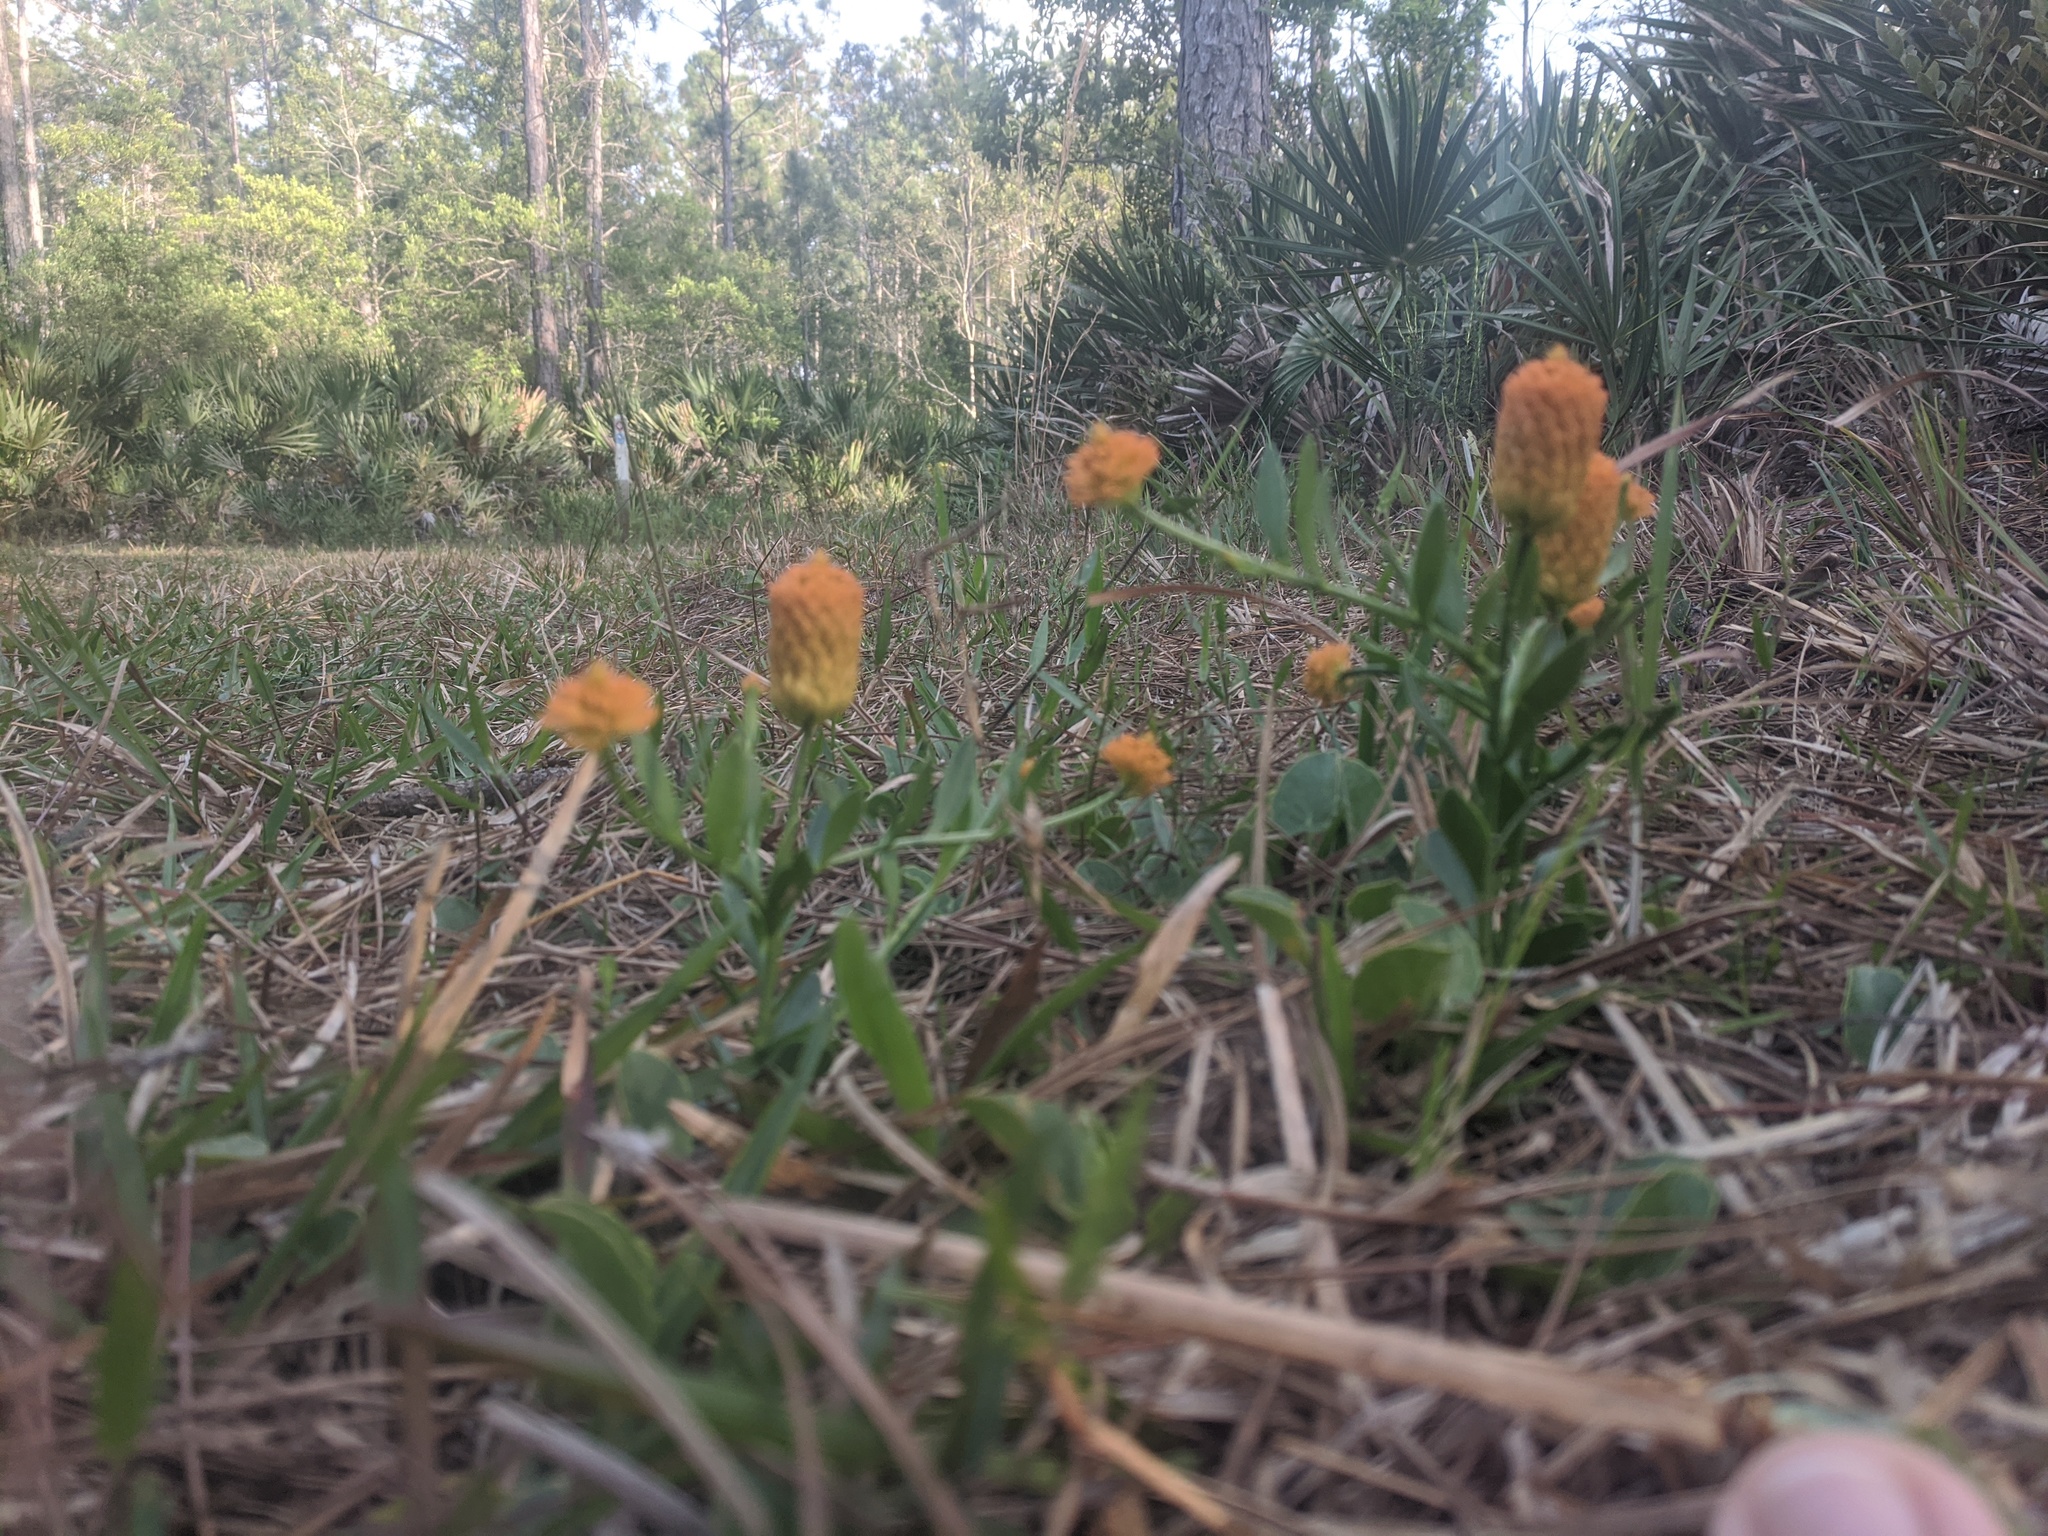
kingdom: Plantae
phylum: Tracheophyta
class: Magnoliopsida
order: Fabales
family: Polygalaceae
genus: Polygala
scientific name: Polygala lutea
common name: Orange milkwort
